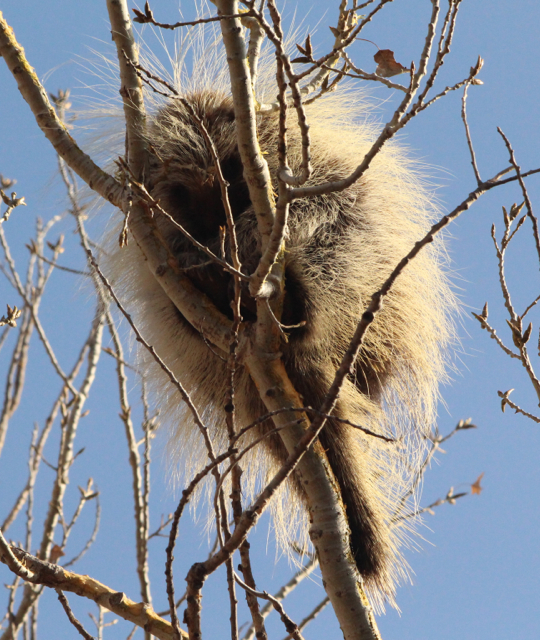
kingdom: Animalia
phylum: Chordata
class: Mammalia
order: Rodentia
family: Erethizontidae
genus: Erethizon
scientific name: Erethizon dorsatus
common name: North american porcupine
